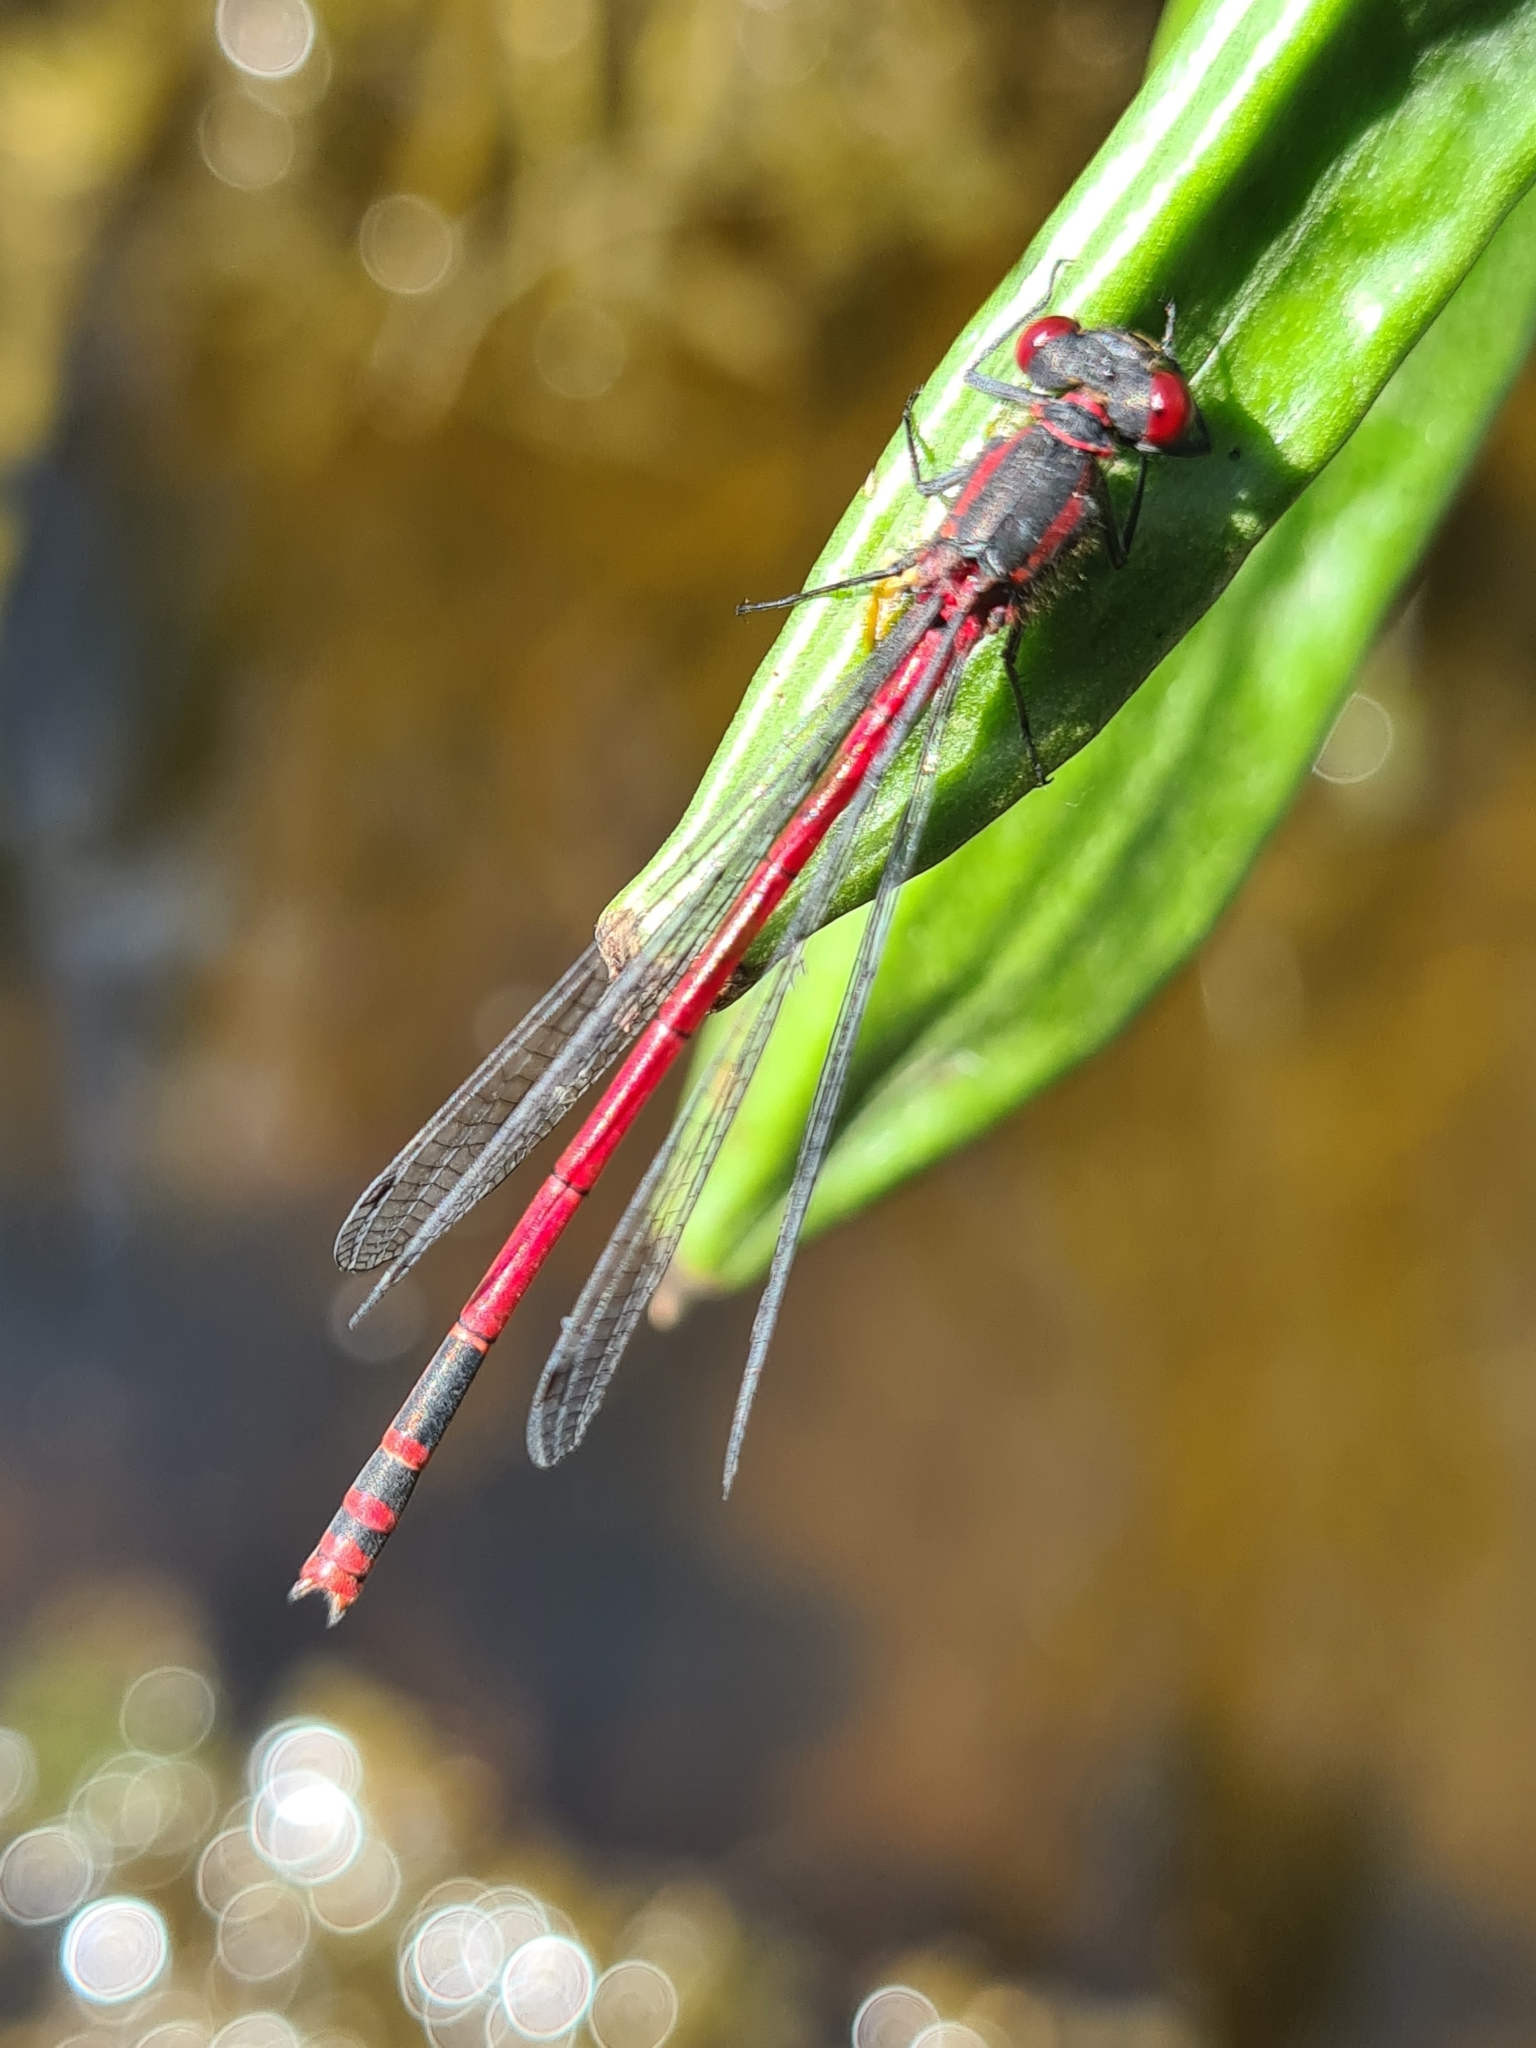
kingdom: Animalia
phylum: Arthropoda
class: Insecta
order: Odonata
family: Coenagrionidae
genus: Pyrrhosoma
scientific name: Pyrrhosoma nymphula
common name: Large red damsel
